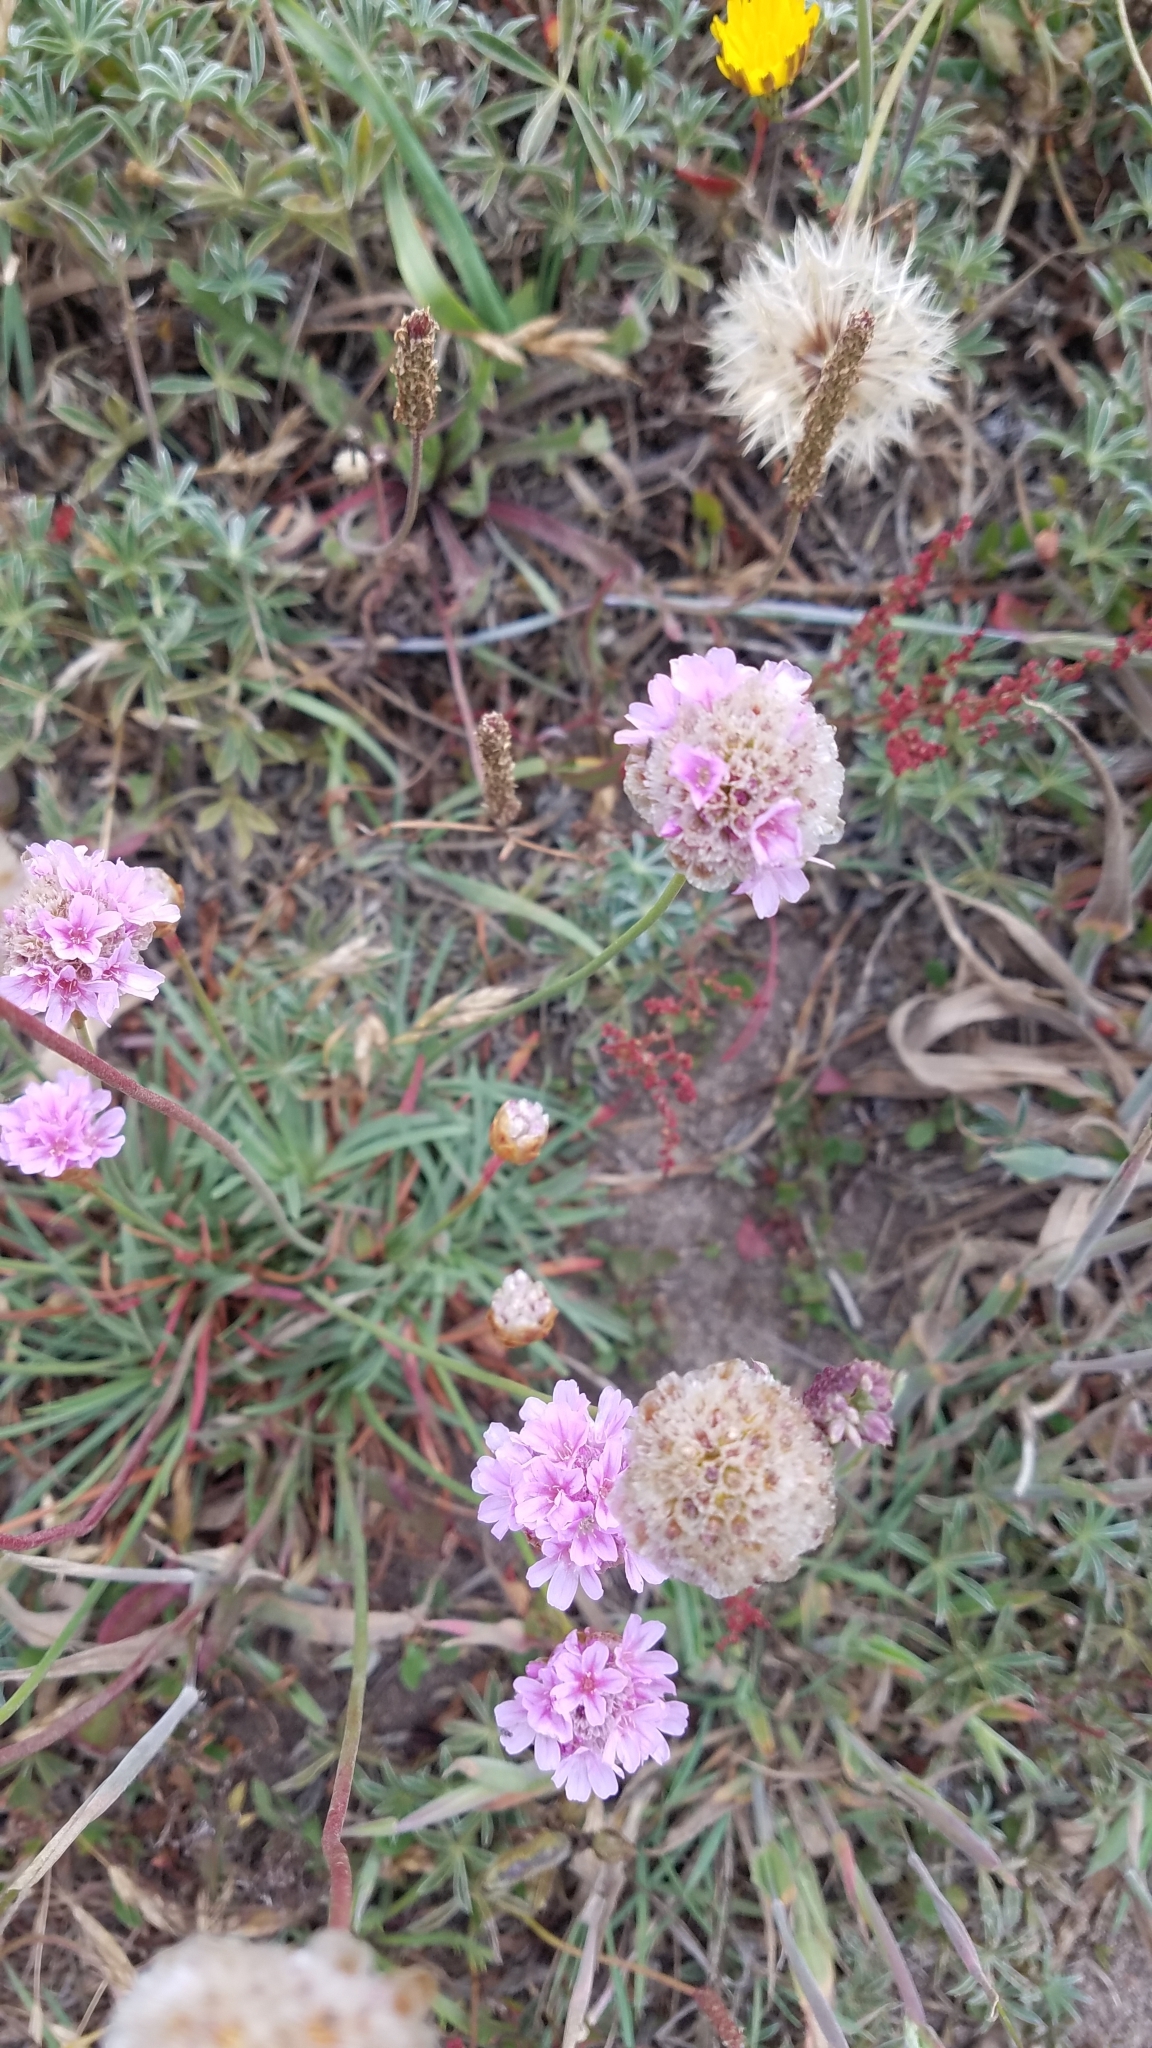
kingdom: Plantae
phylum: Tracheophyta
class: Magnoliopsida
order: Caryophyllales
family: Plumbaginaceae
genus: Armeria
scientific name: Armeria maritima
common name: Thrift
